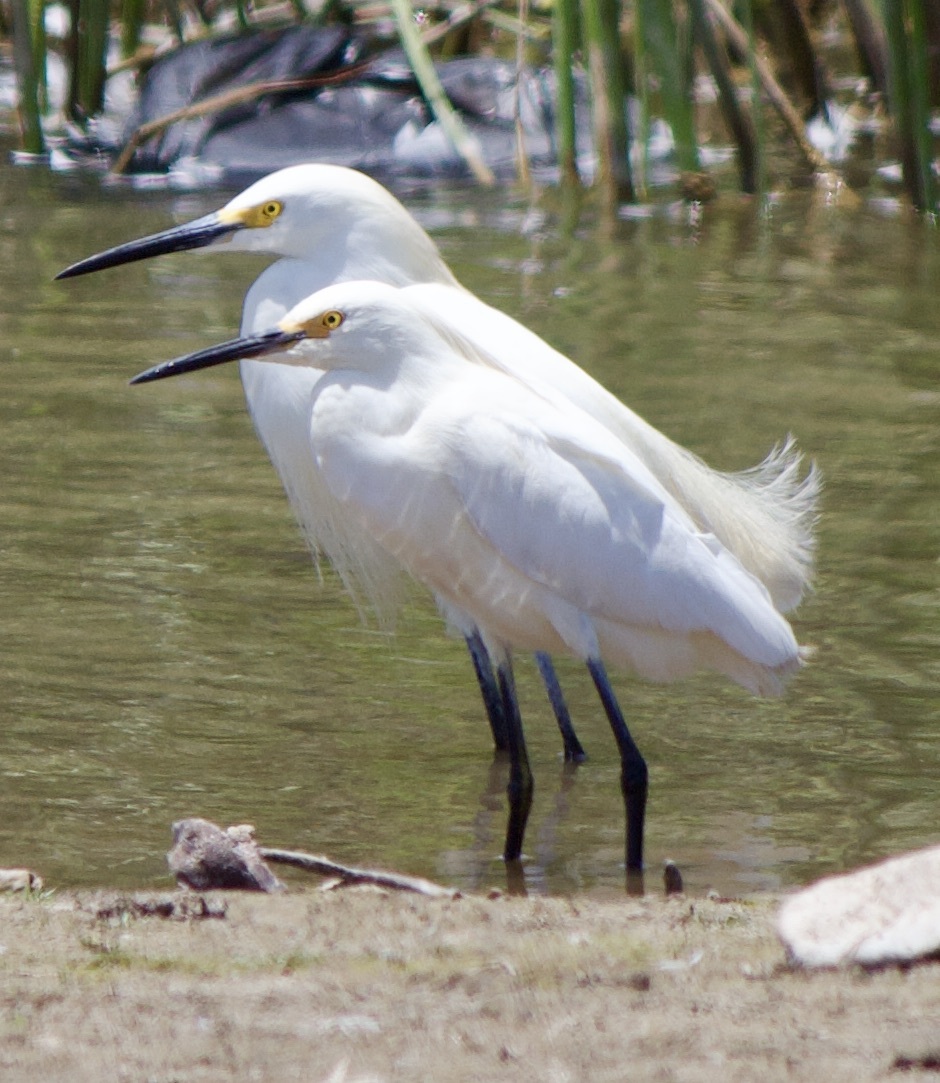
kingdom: Animalia
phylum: Chordata
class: Aves
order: Pelecaniformes
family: Ardeidae
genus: Egretta
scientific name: Egretta thula
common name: Snowy egret
